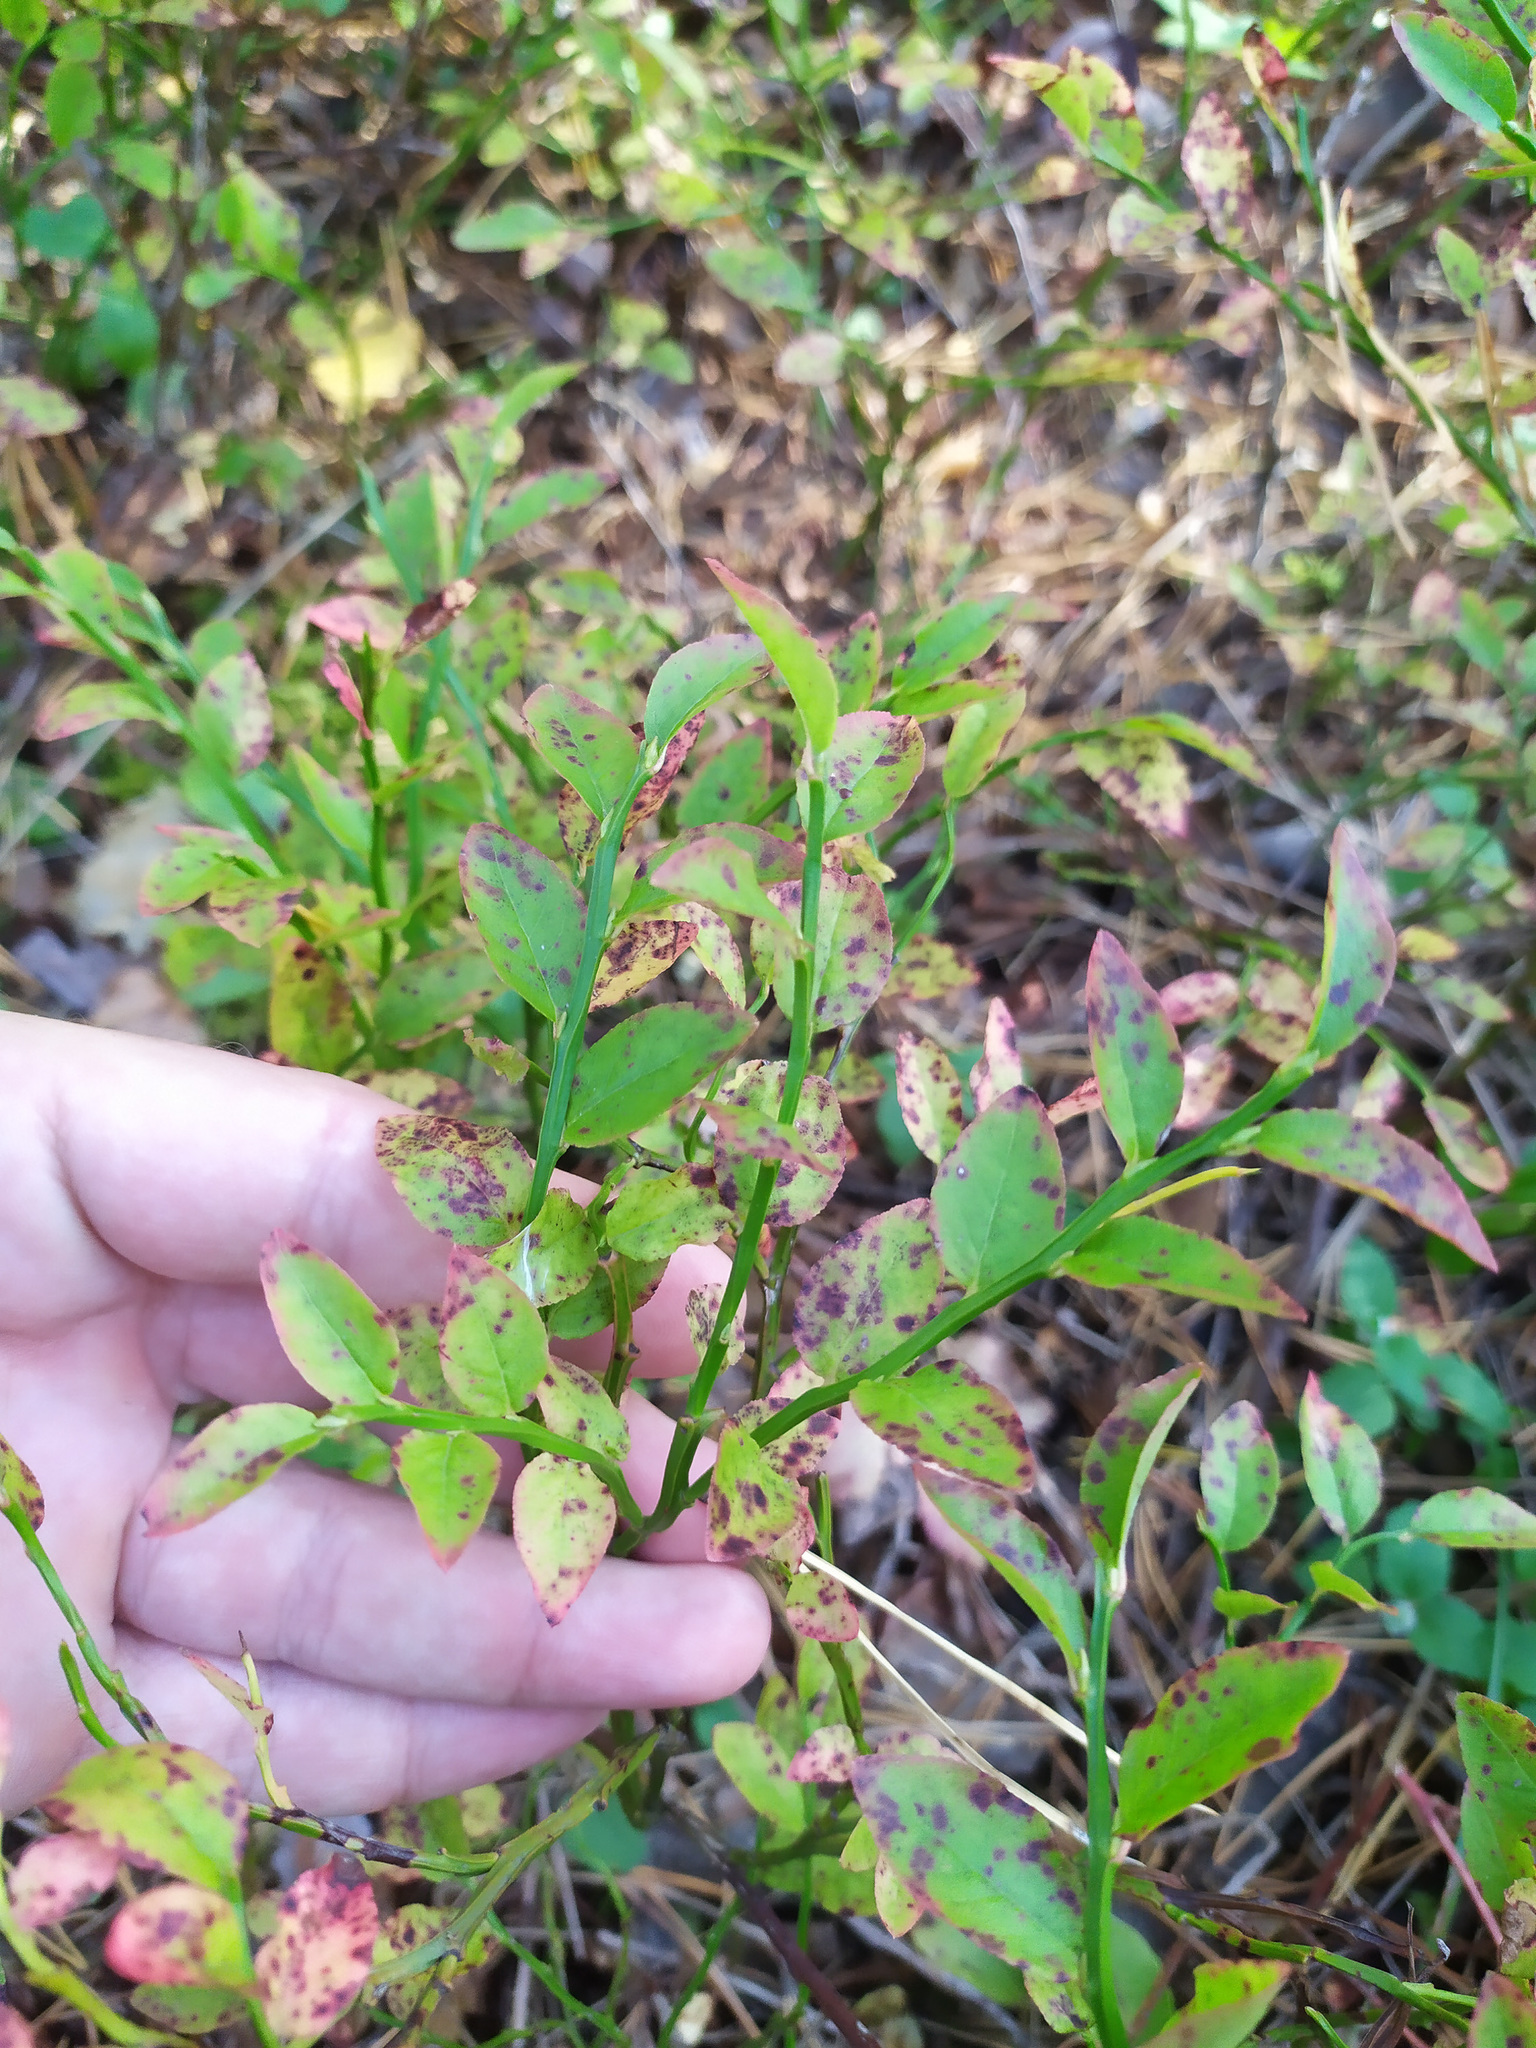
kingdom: Plantae
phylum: Tracheophyta
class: Magnoliopsida
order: Ericales
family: Ericaceae
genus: Vaccinium
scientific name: Vaccinium myrtillus
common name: Bilberry
